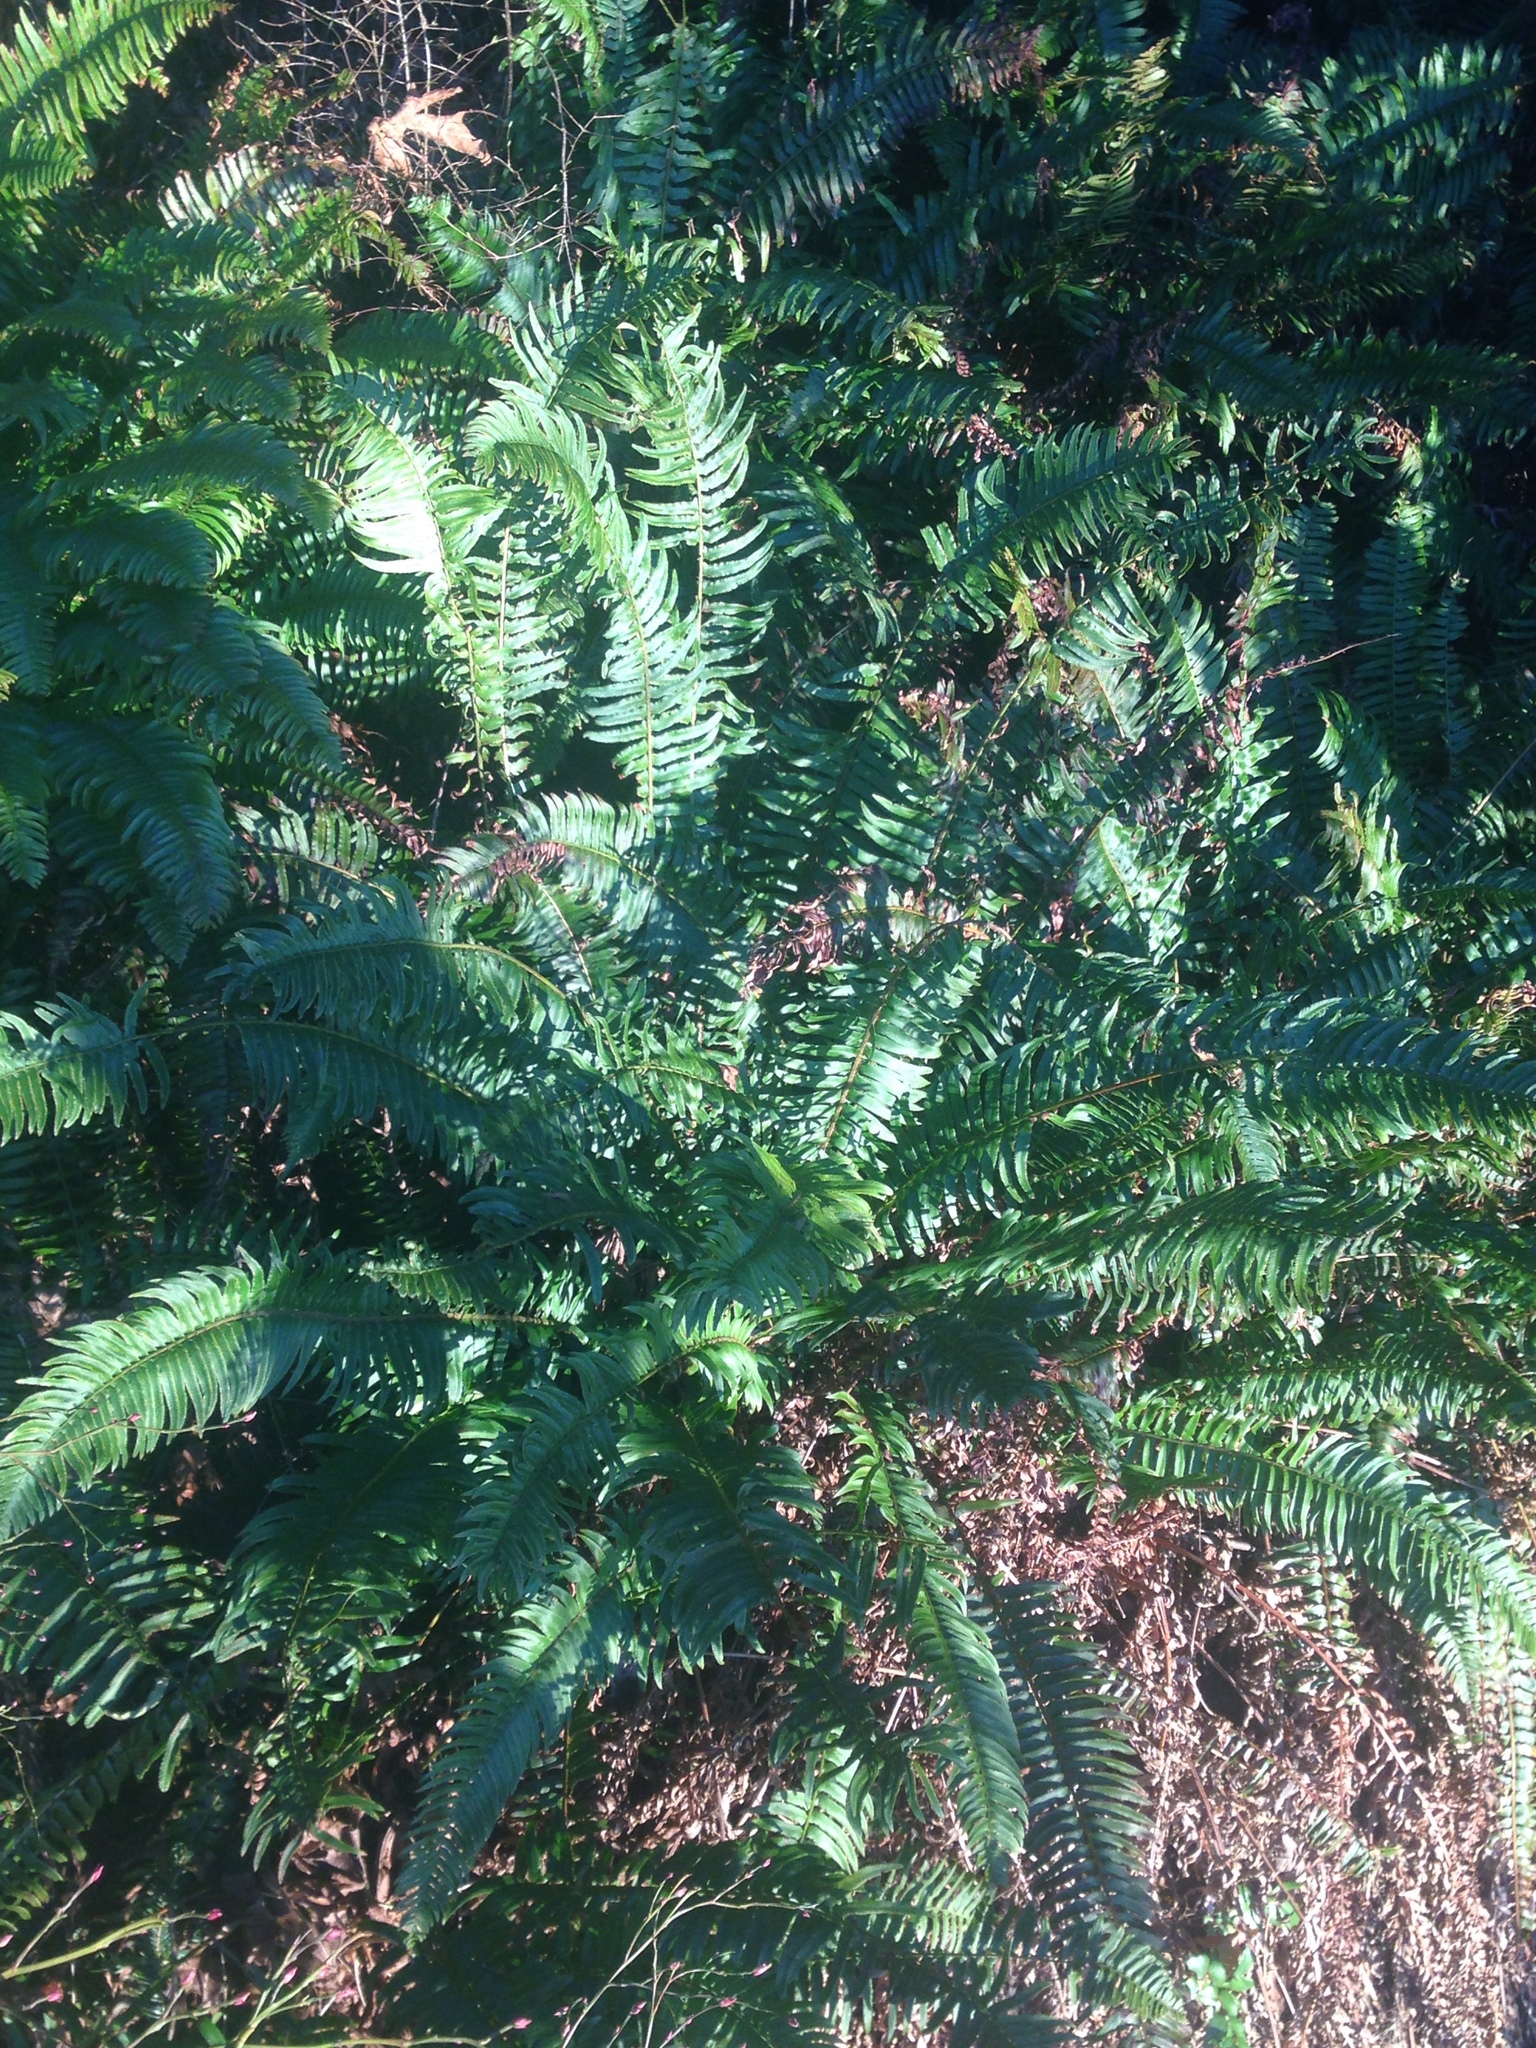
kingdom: Plantae
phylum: Tracheophyta
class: Polypodiopsida
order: Polypodiales
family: Dryopteridaceae
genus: Polystichum
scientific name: Polystichum munitum
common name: Western sword-fern
